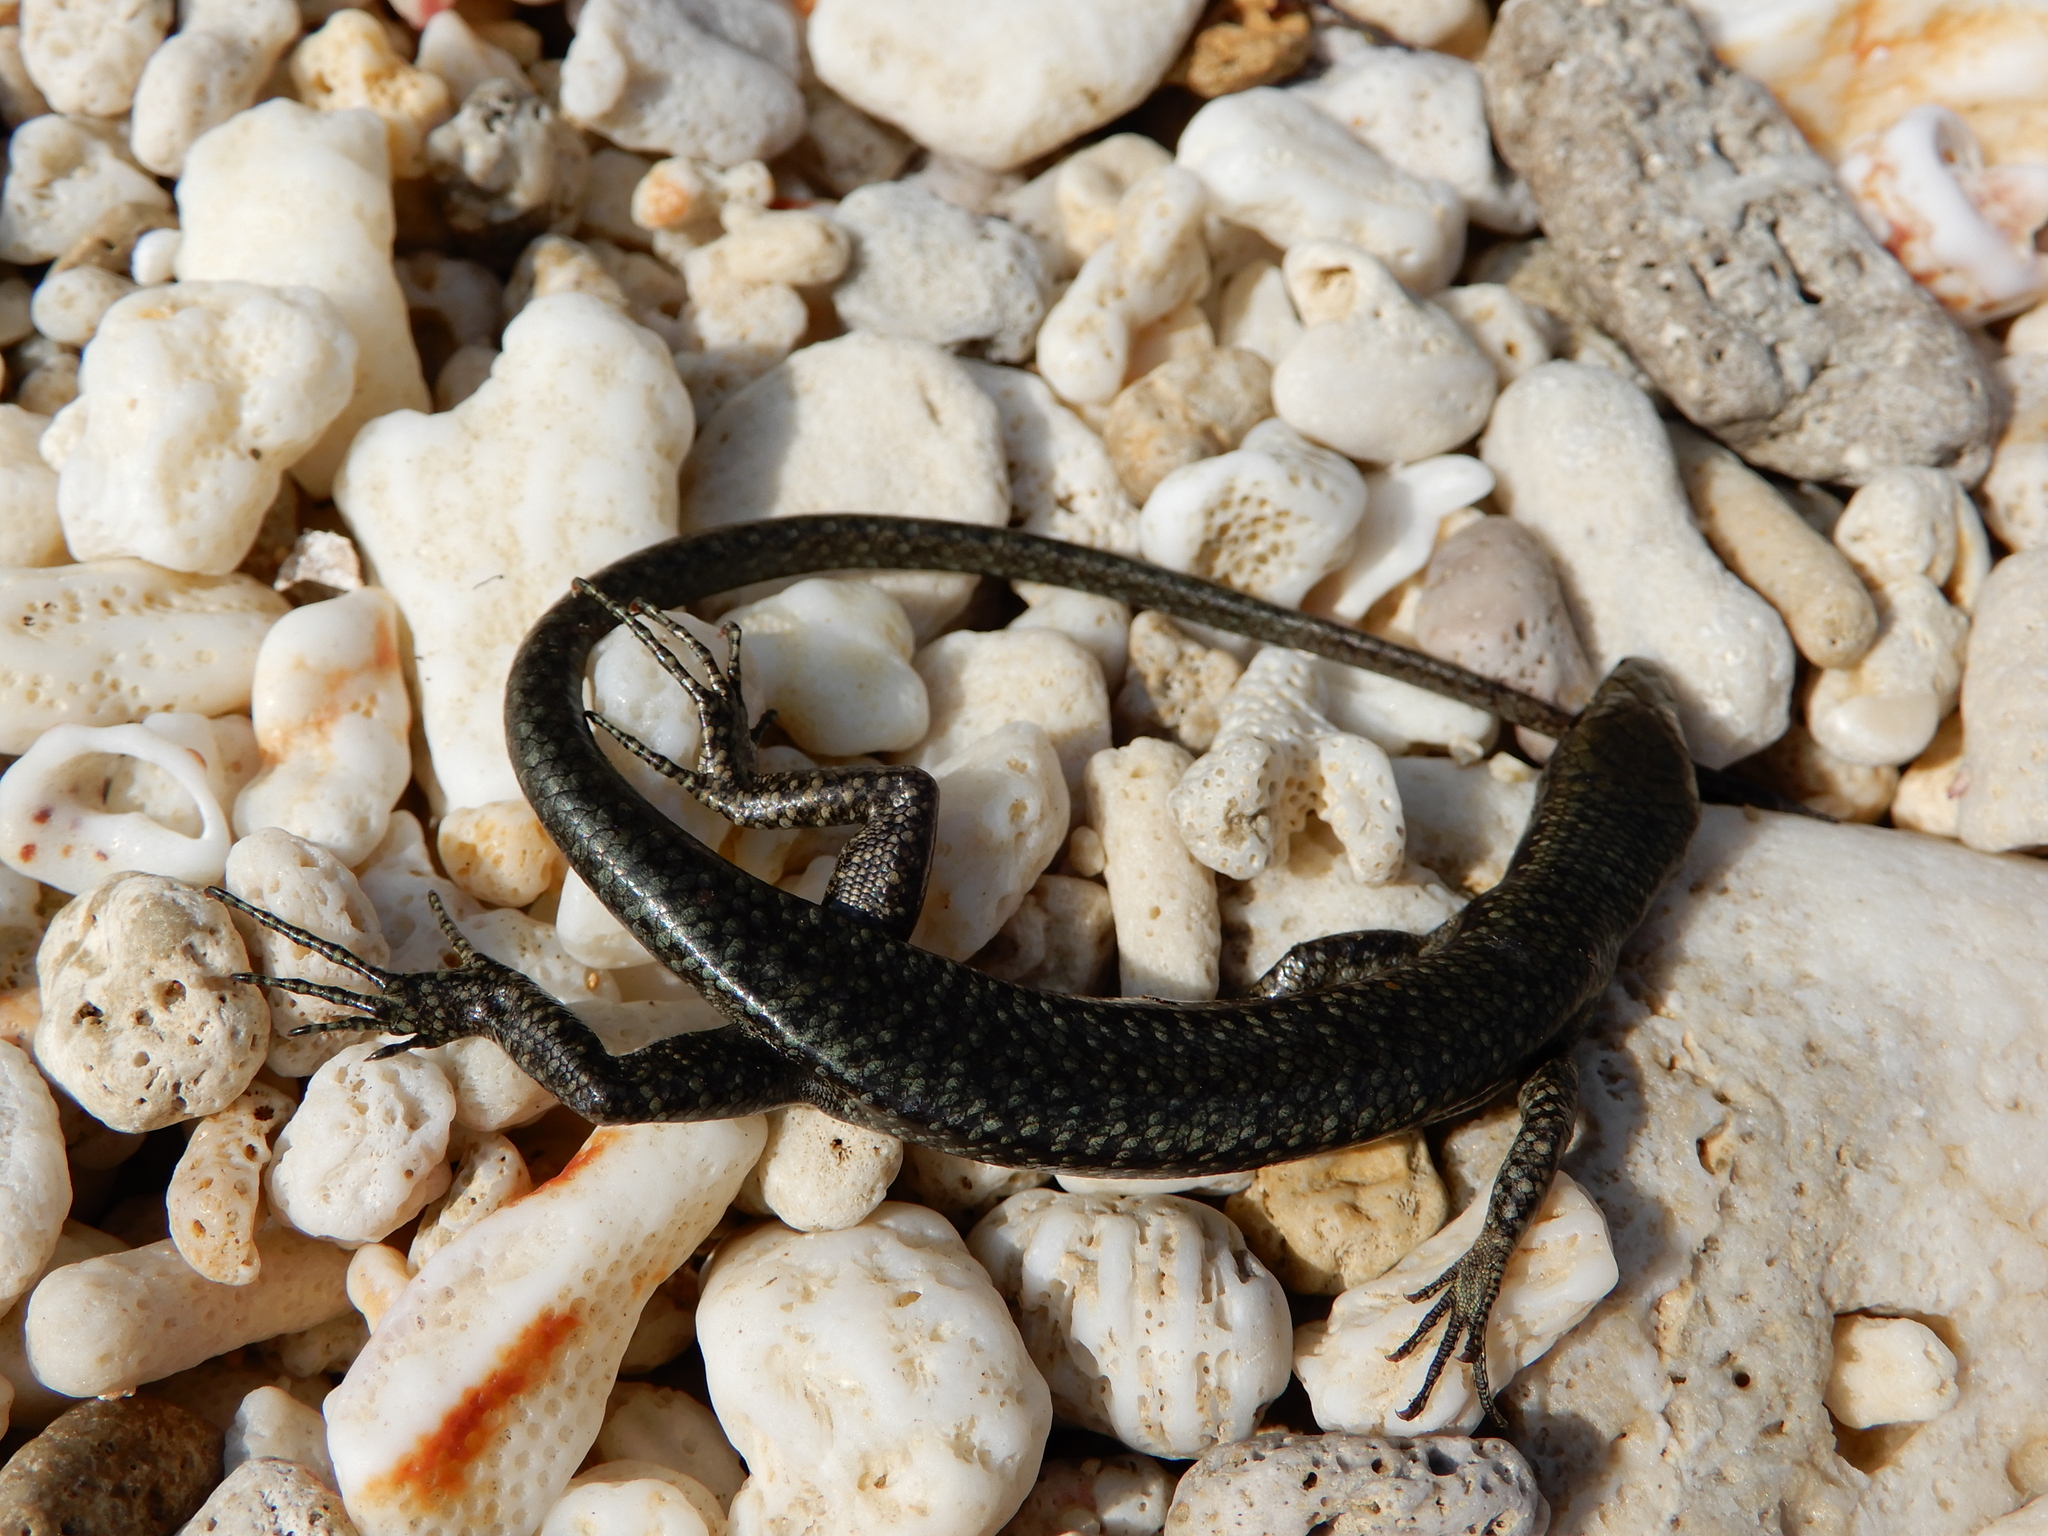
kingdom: Animalia
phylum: Chordata
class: Squamata
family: Scincidae
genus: Emoia
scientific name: Emoia atrocostata
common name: Littoral skink
